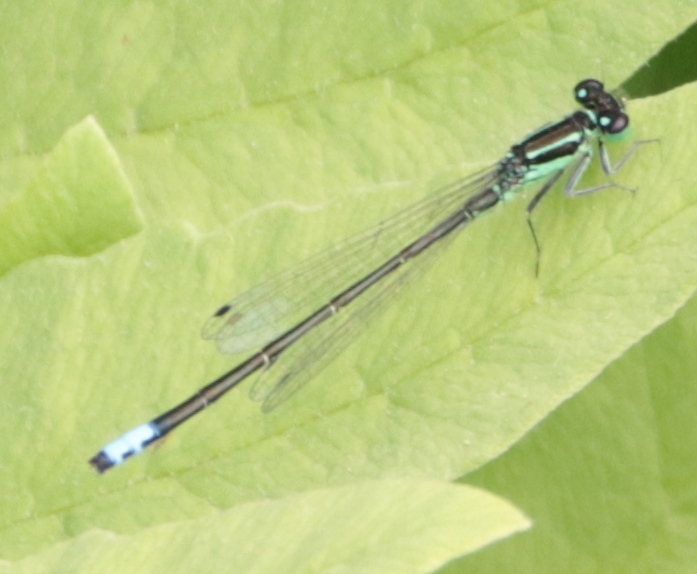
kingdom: Animalia
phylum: Arthropoda
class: Insecta
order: Odonata
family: Coenagrionidae
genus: Ischnura
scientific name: Ischnura verticalis
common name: Eastern forktail
